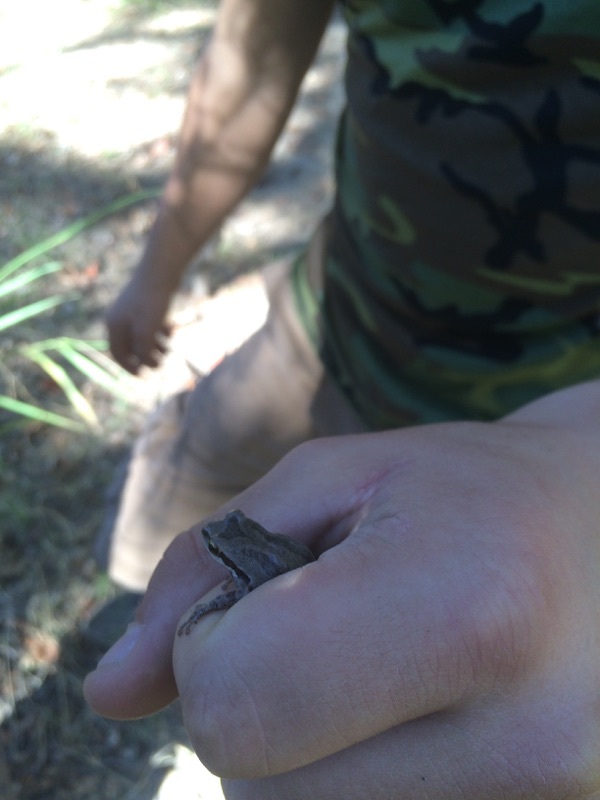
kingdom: Animalia
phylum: Chordata
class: Amphibia
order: Anura
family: Hylidae
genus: Pseudacris
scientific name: Pseudacris regilla
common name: Pacific chorus frog
